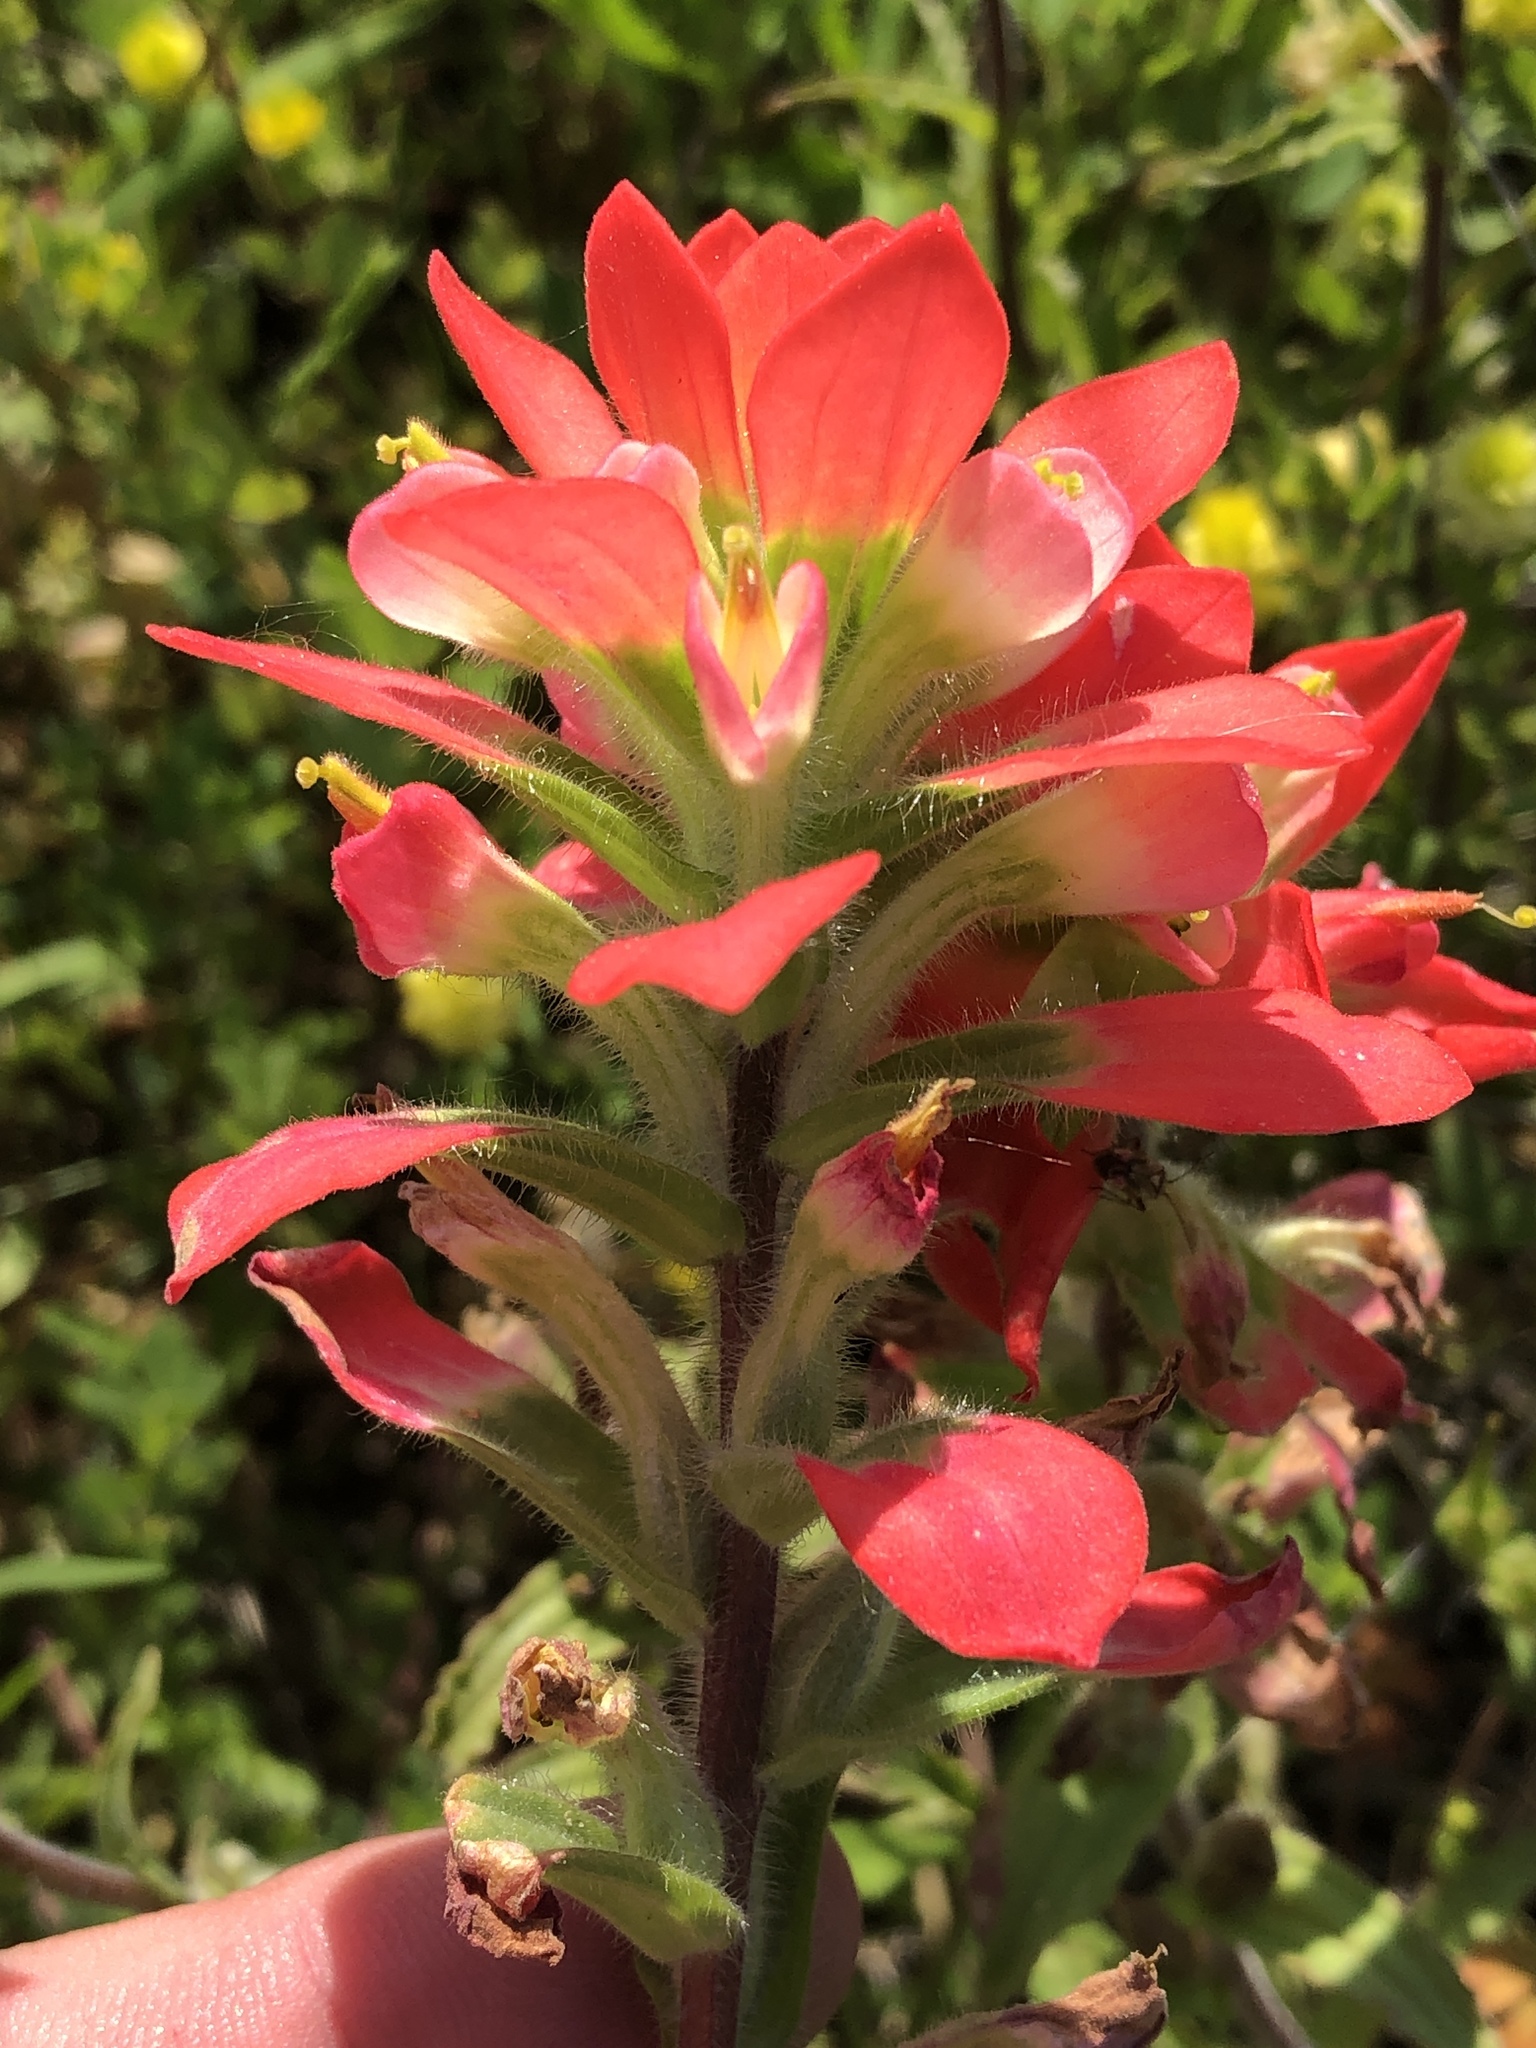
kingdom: Plantae
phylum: Tracheophyta
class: Magnoliopsida
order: Lamiales
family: Orobanchaceae
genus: Castilleja
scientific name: Castilleja indivisa
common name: Texas paintbrush
